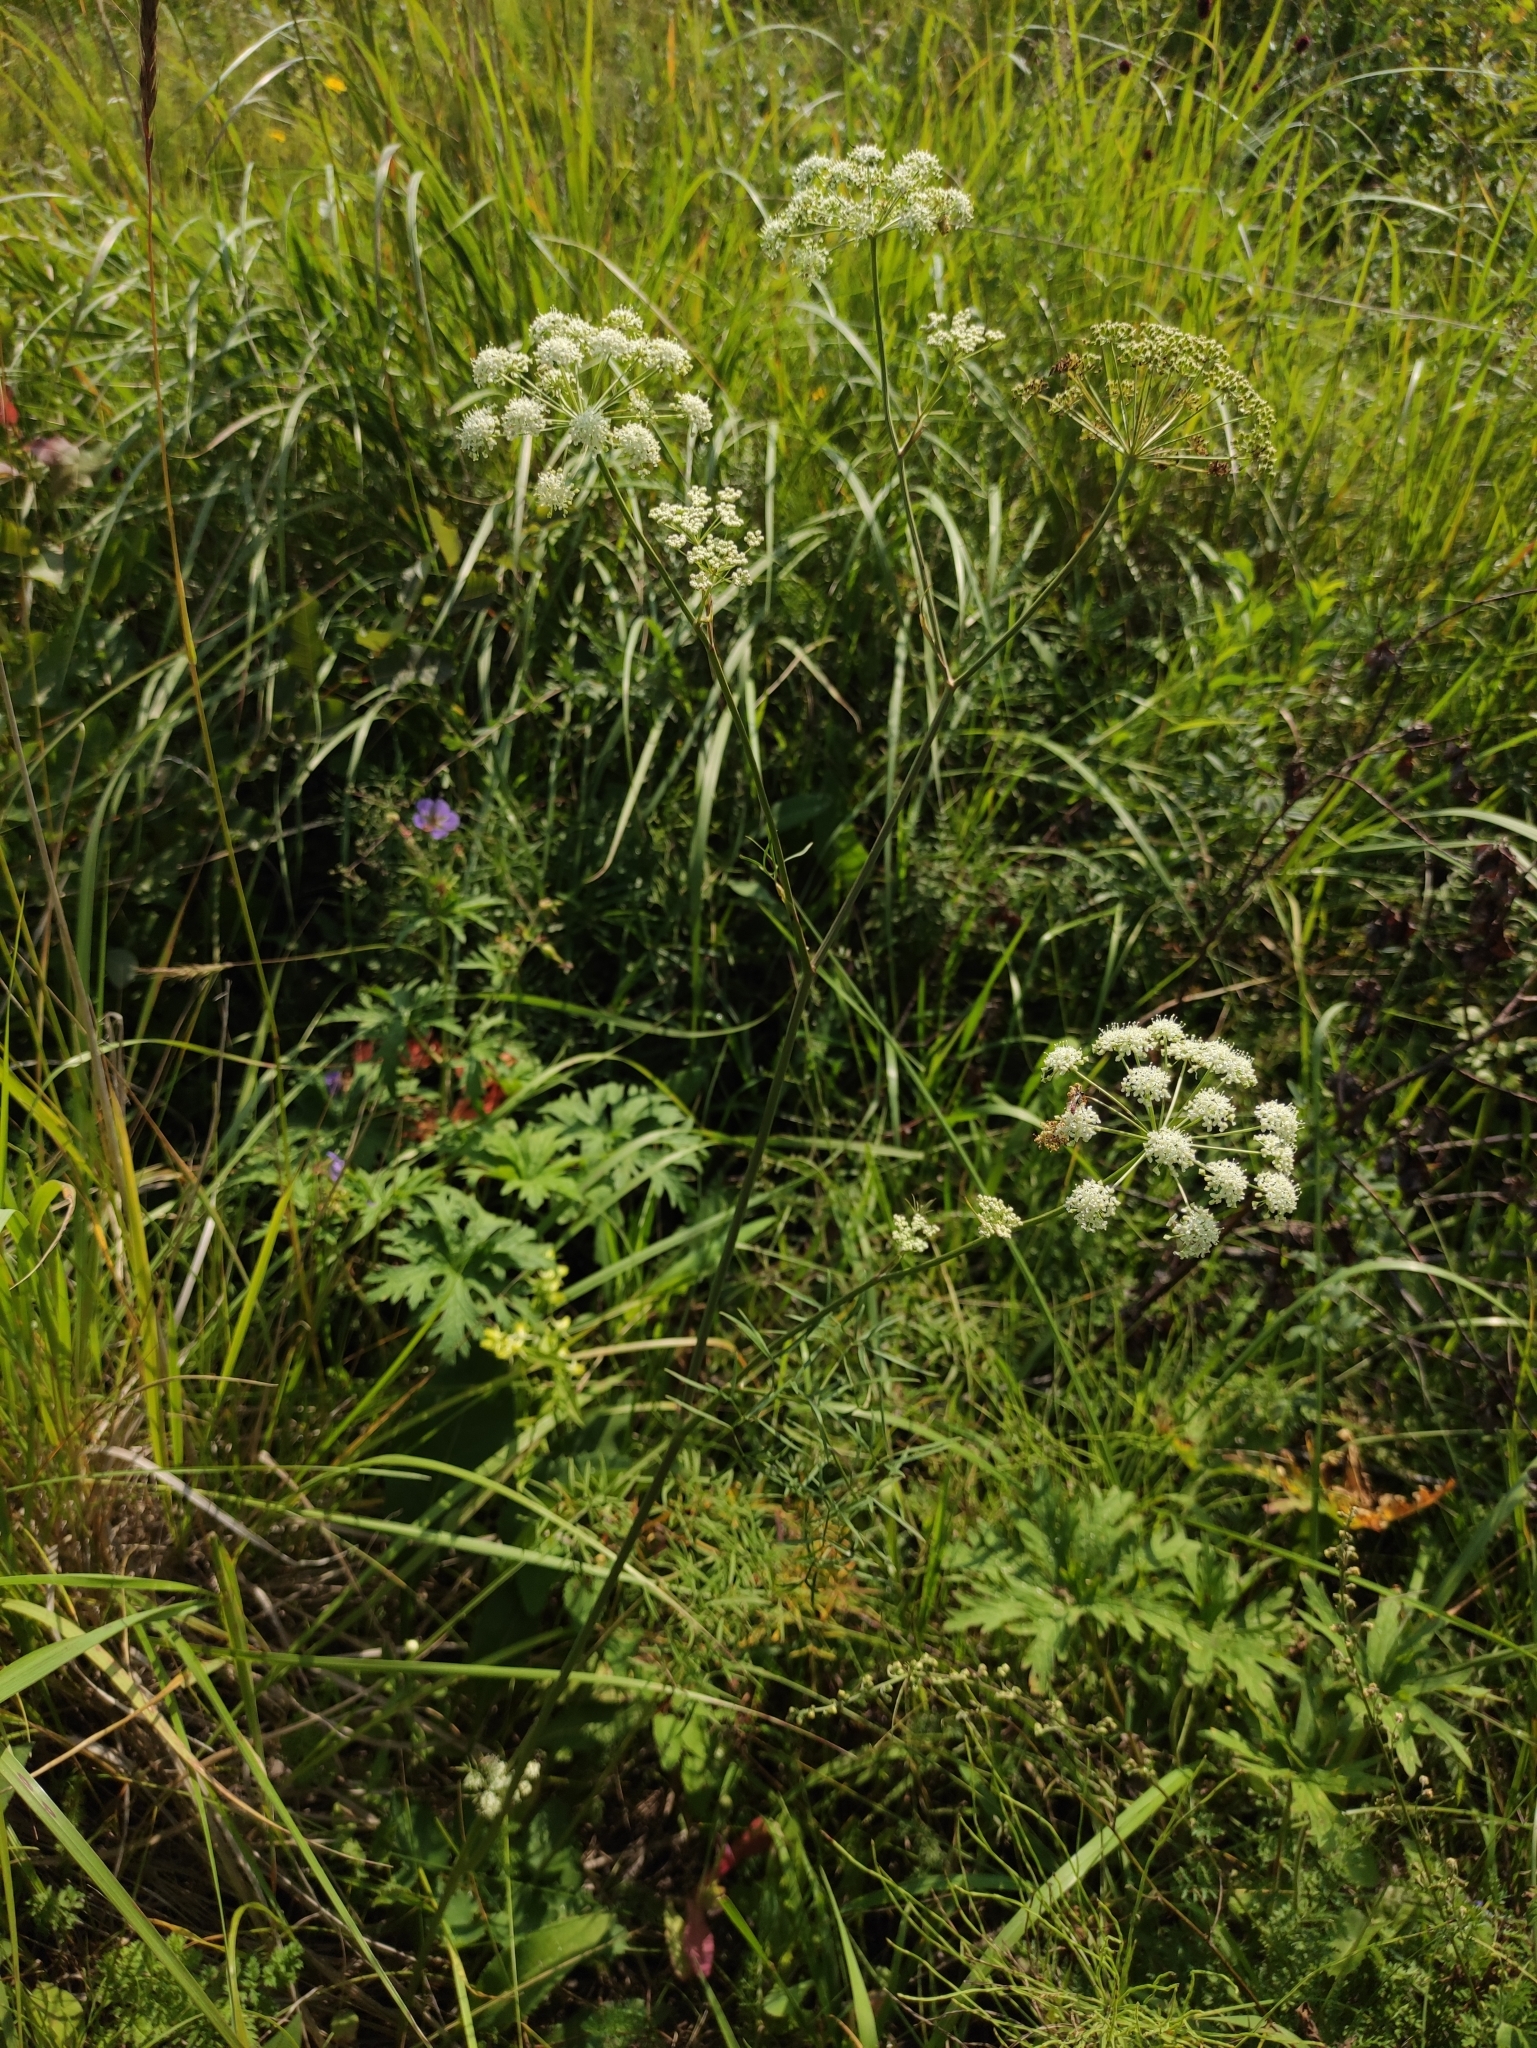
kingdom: Plantae
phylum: Tracheophyta
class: Magnoliopsida
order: Apiales
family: Apiaceae
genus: Cenolophium
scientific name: Cenolophium fischeri
